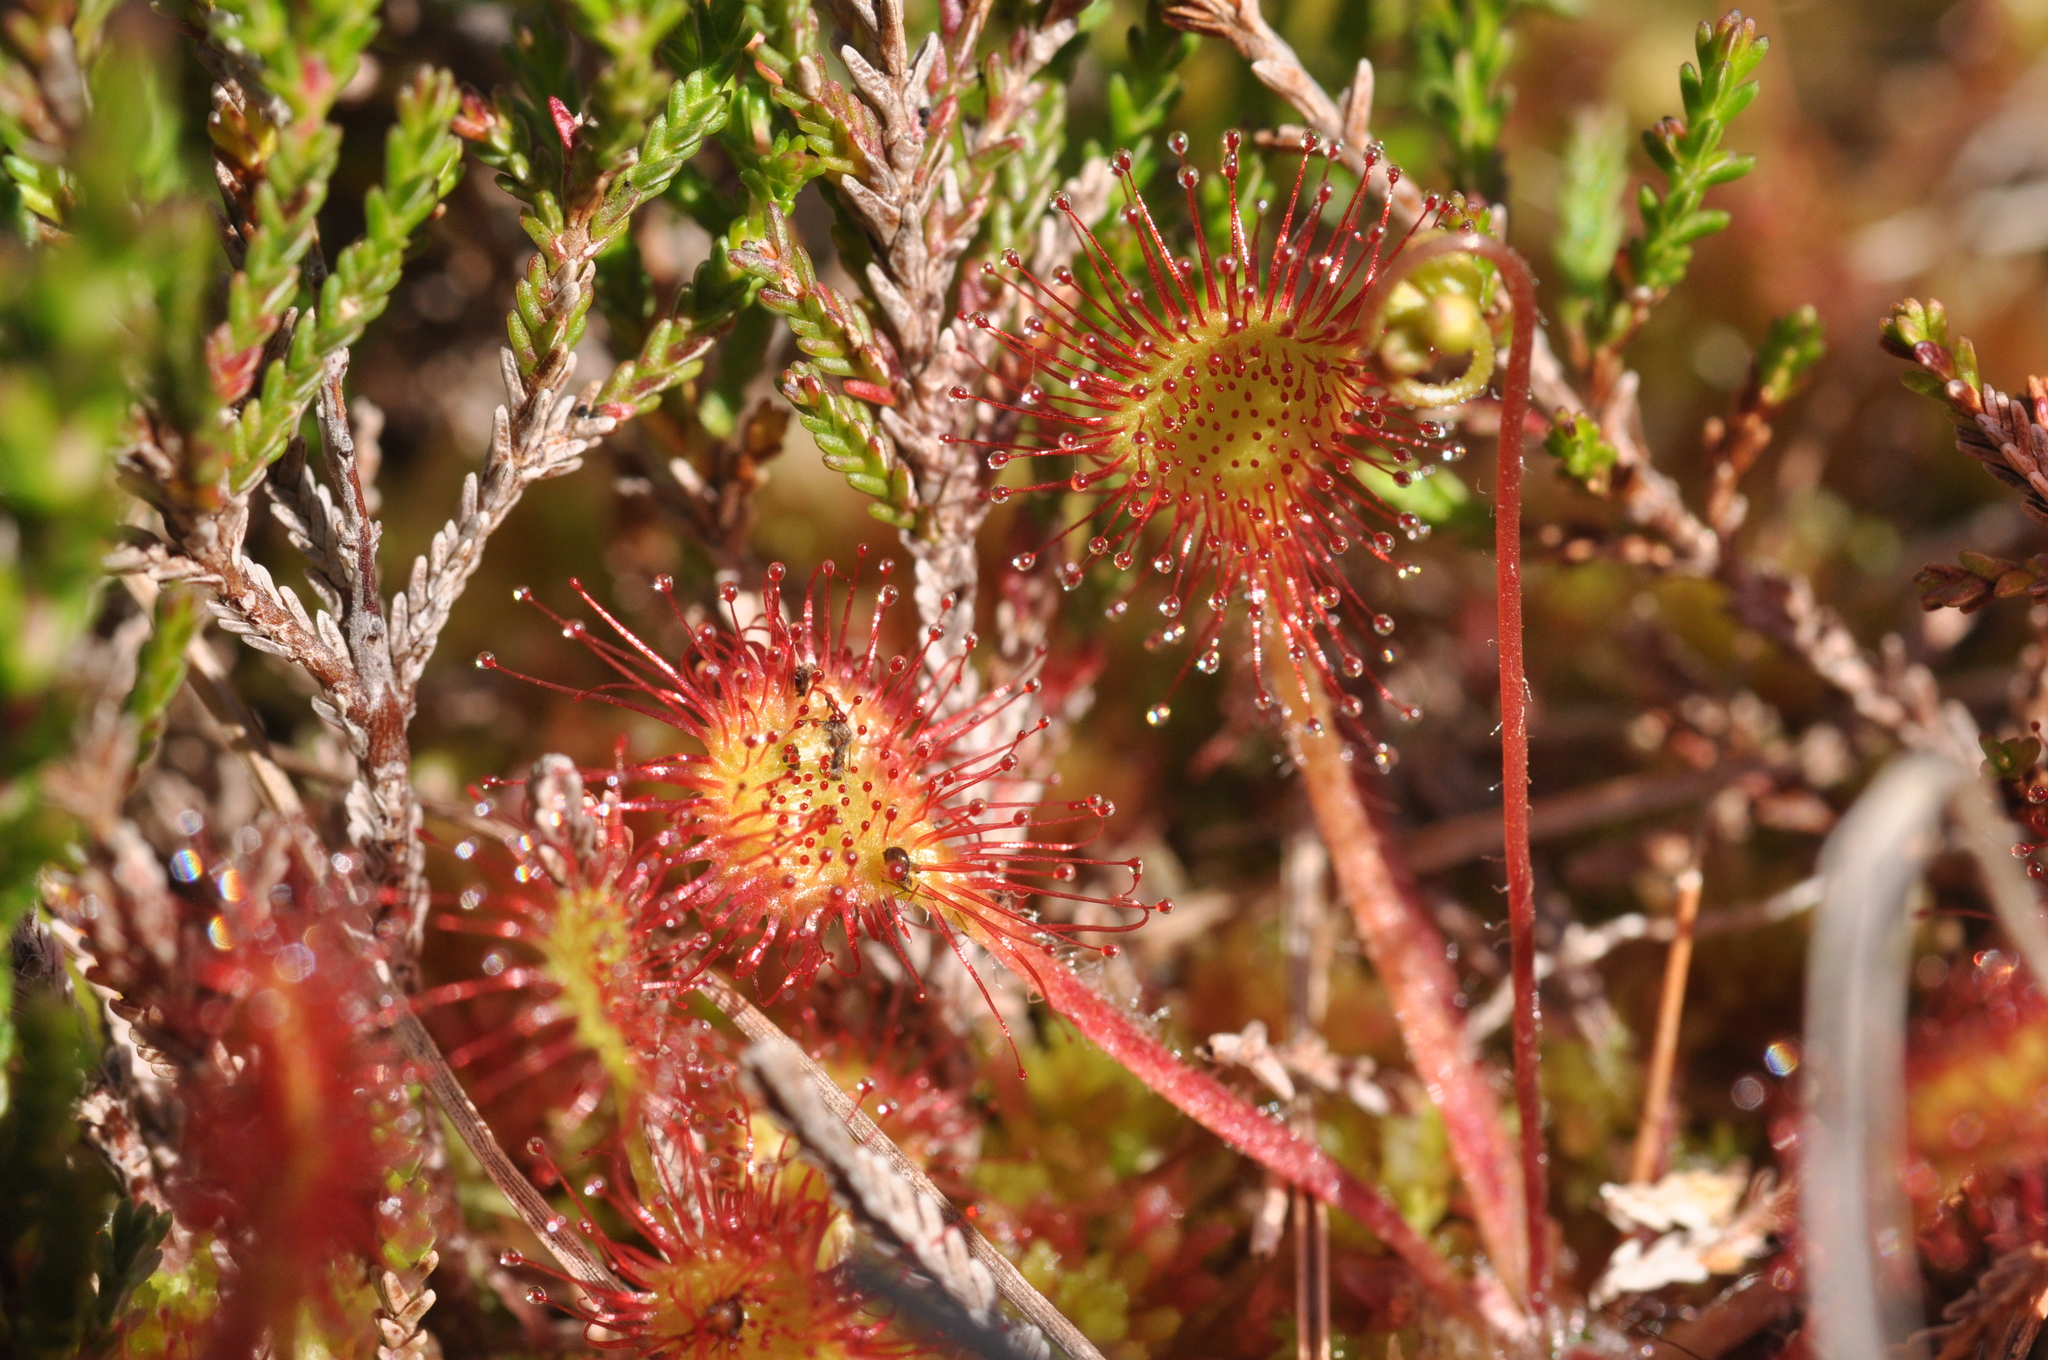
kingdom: Plantae
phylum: Tracheophyta
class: Magnoliopsida
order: Caryophyllales
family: Droseraceae
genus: Drosera
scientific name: Drosera rotundifolia
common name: Round-leaved sundew
